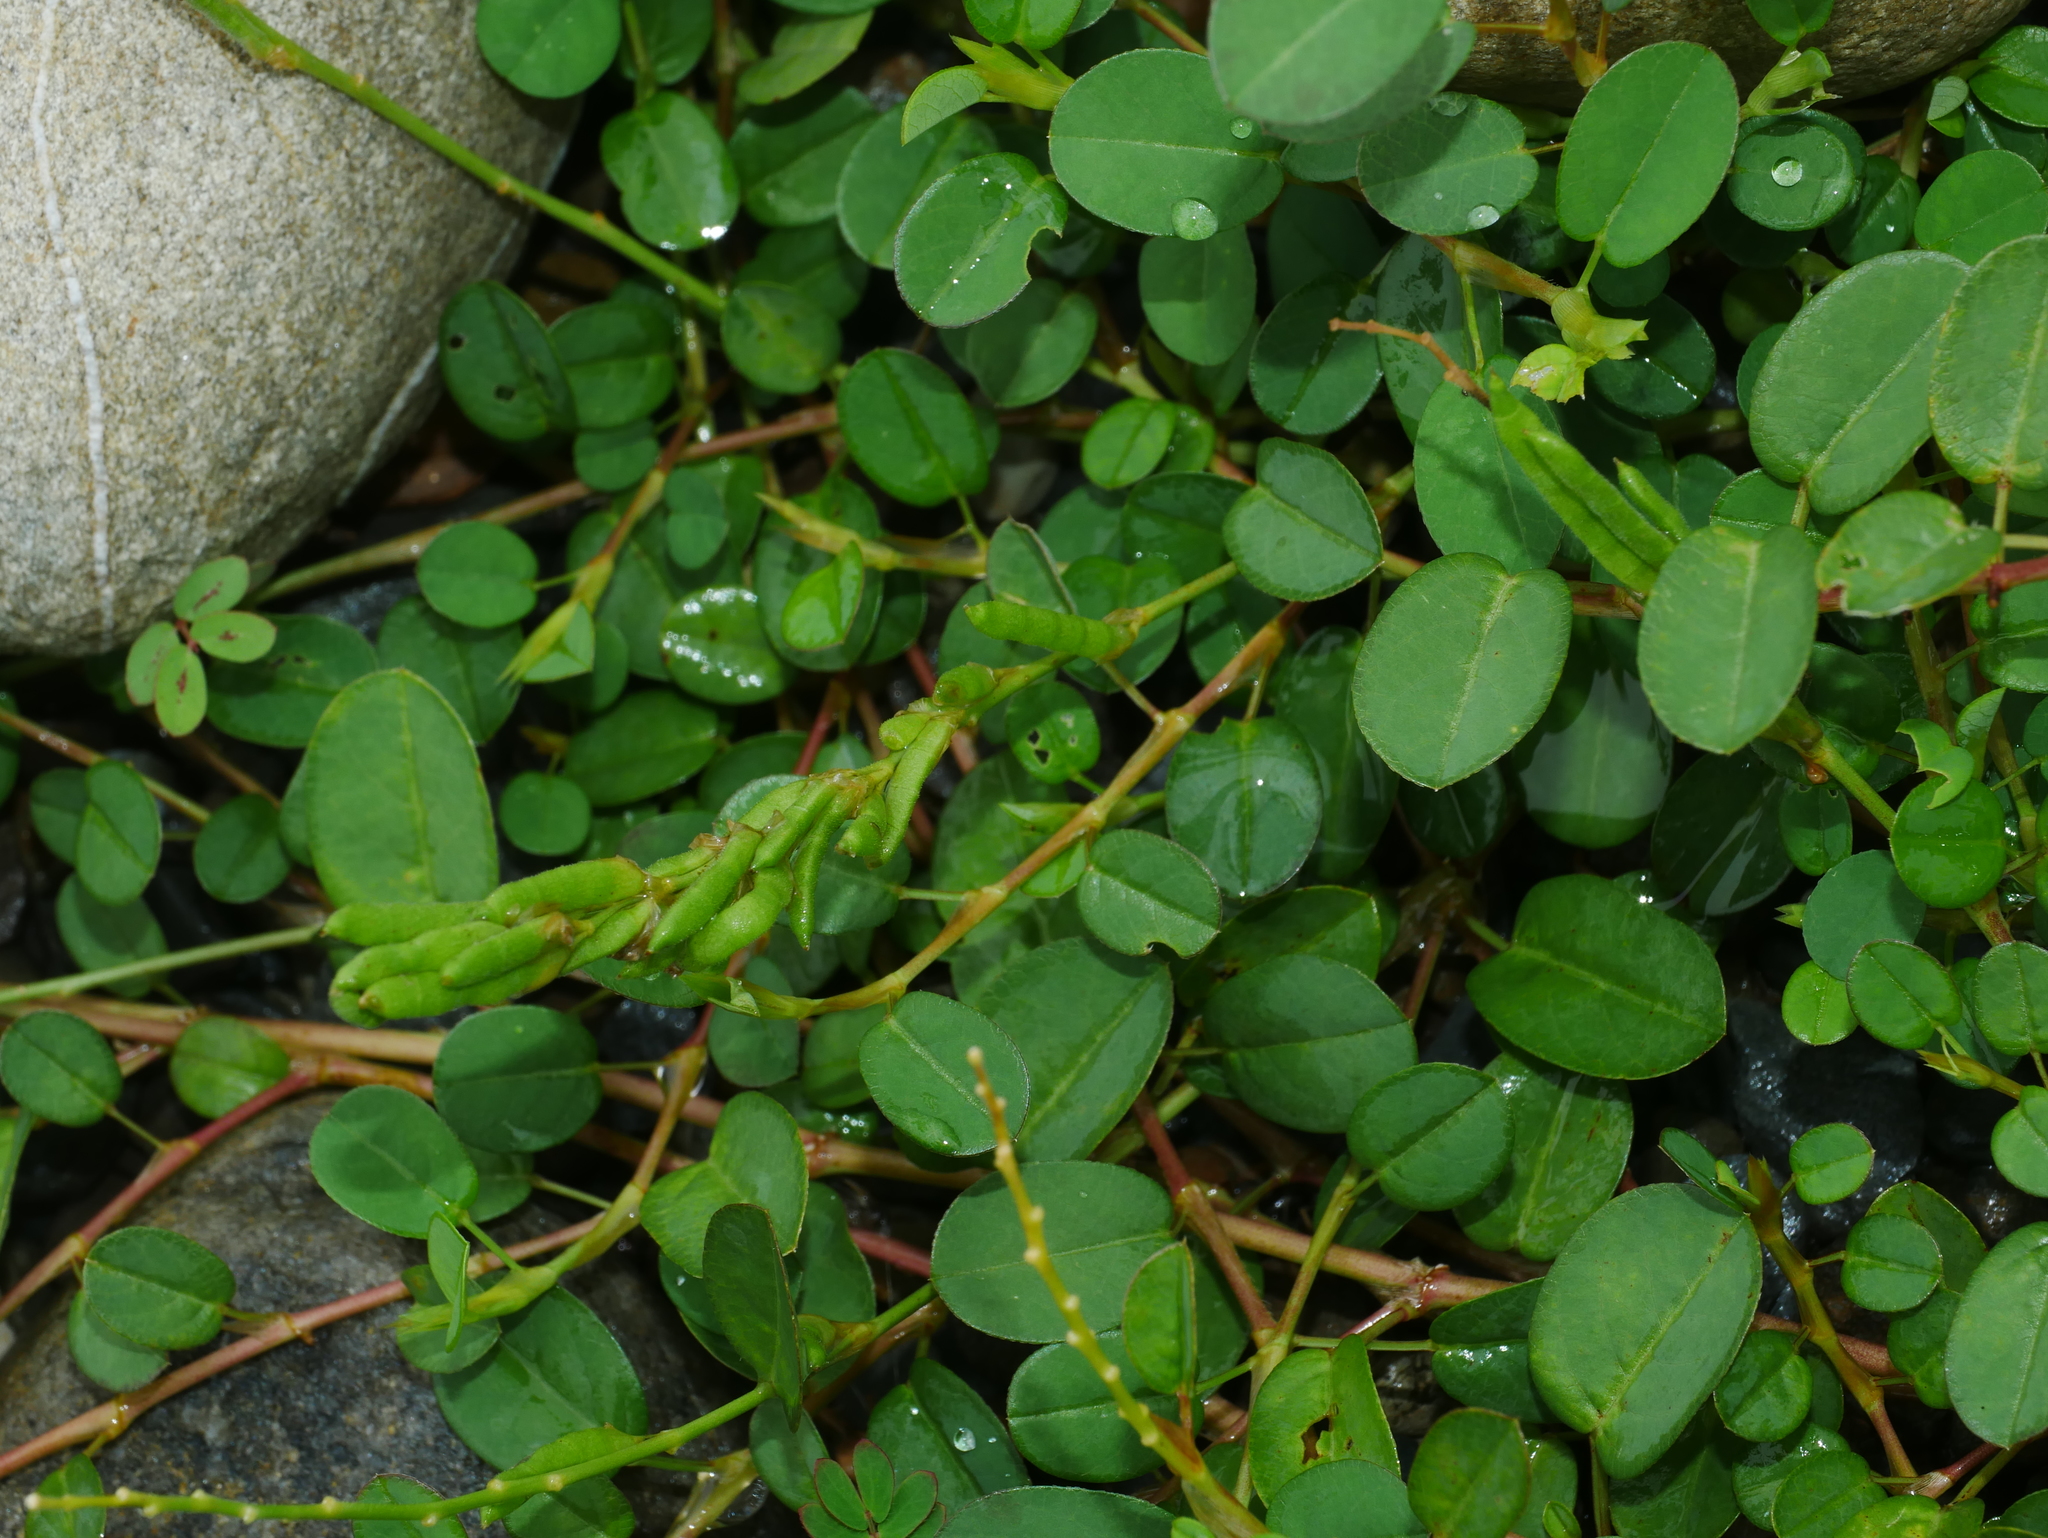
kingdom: Plantae
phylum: Tracheophyta
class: Magnoliopsida
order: Fabales
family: Fabaceae
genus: Alysicarpus
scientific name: Alysicarpus vaginalis
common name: White moneywort
